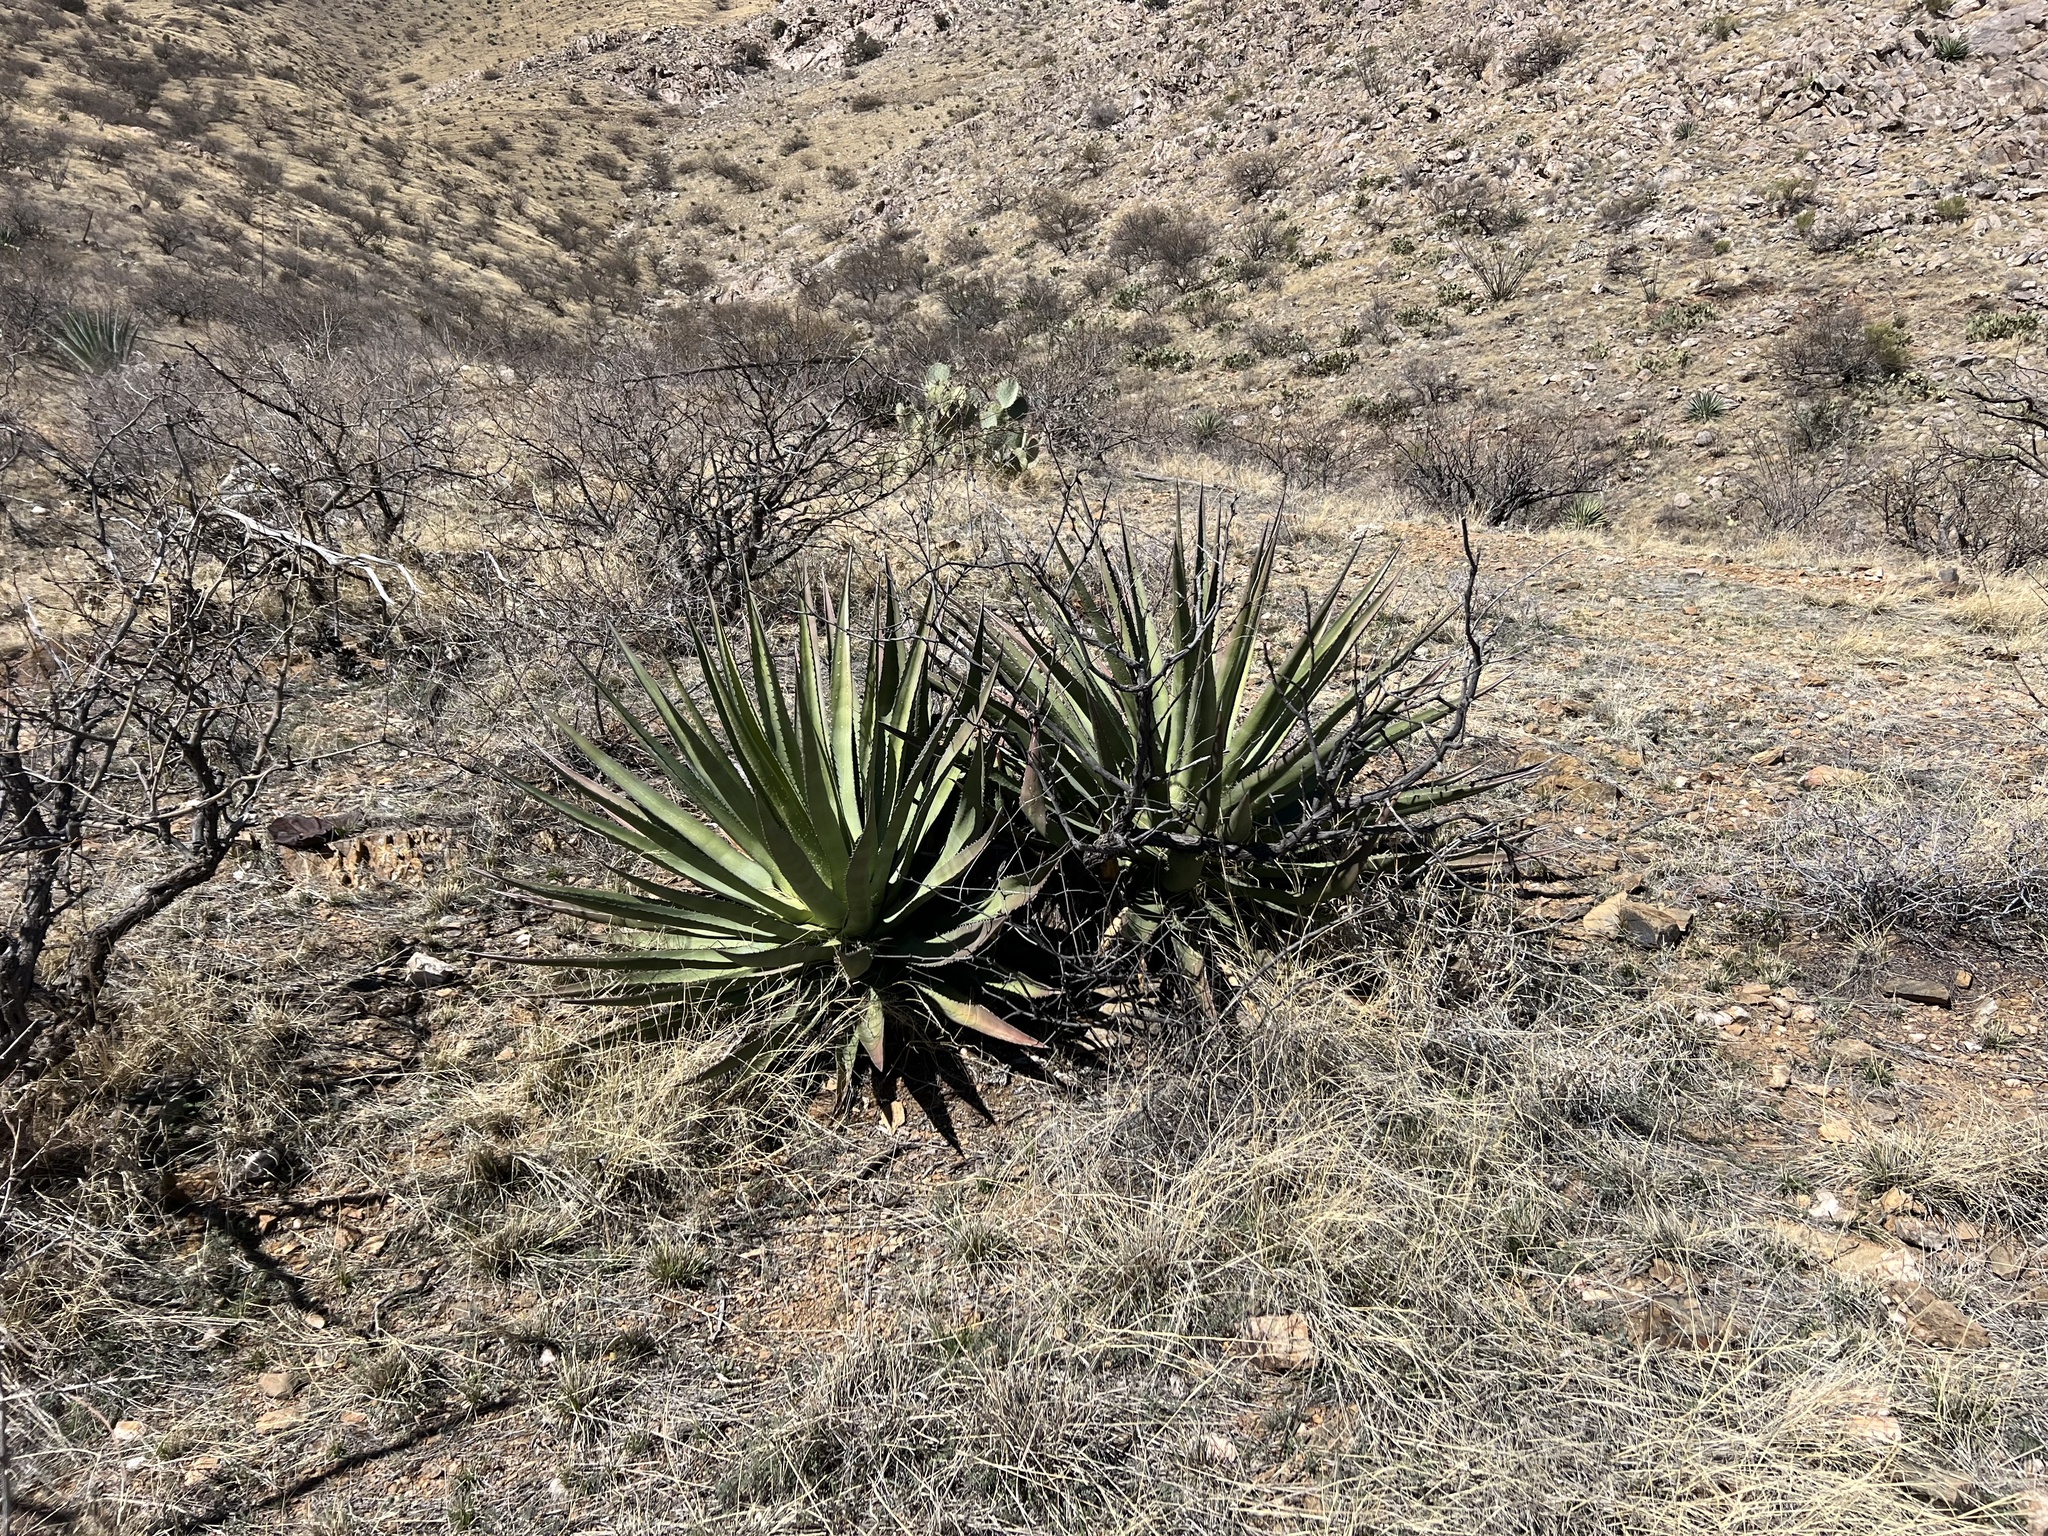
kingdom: Plantae
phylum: Tracheophyta
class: Liliopsida
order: Asparagales
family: Asparagaceae
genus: Agave
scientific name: Agave palmeri
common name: Palmer agave
